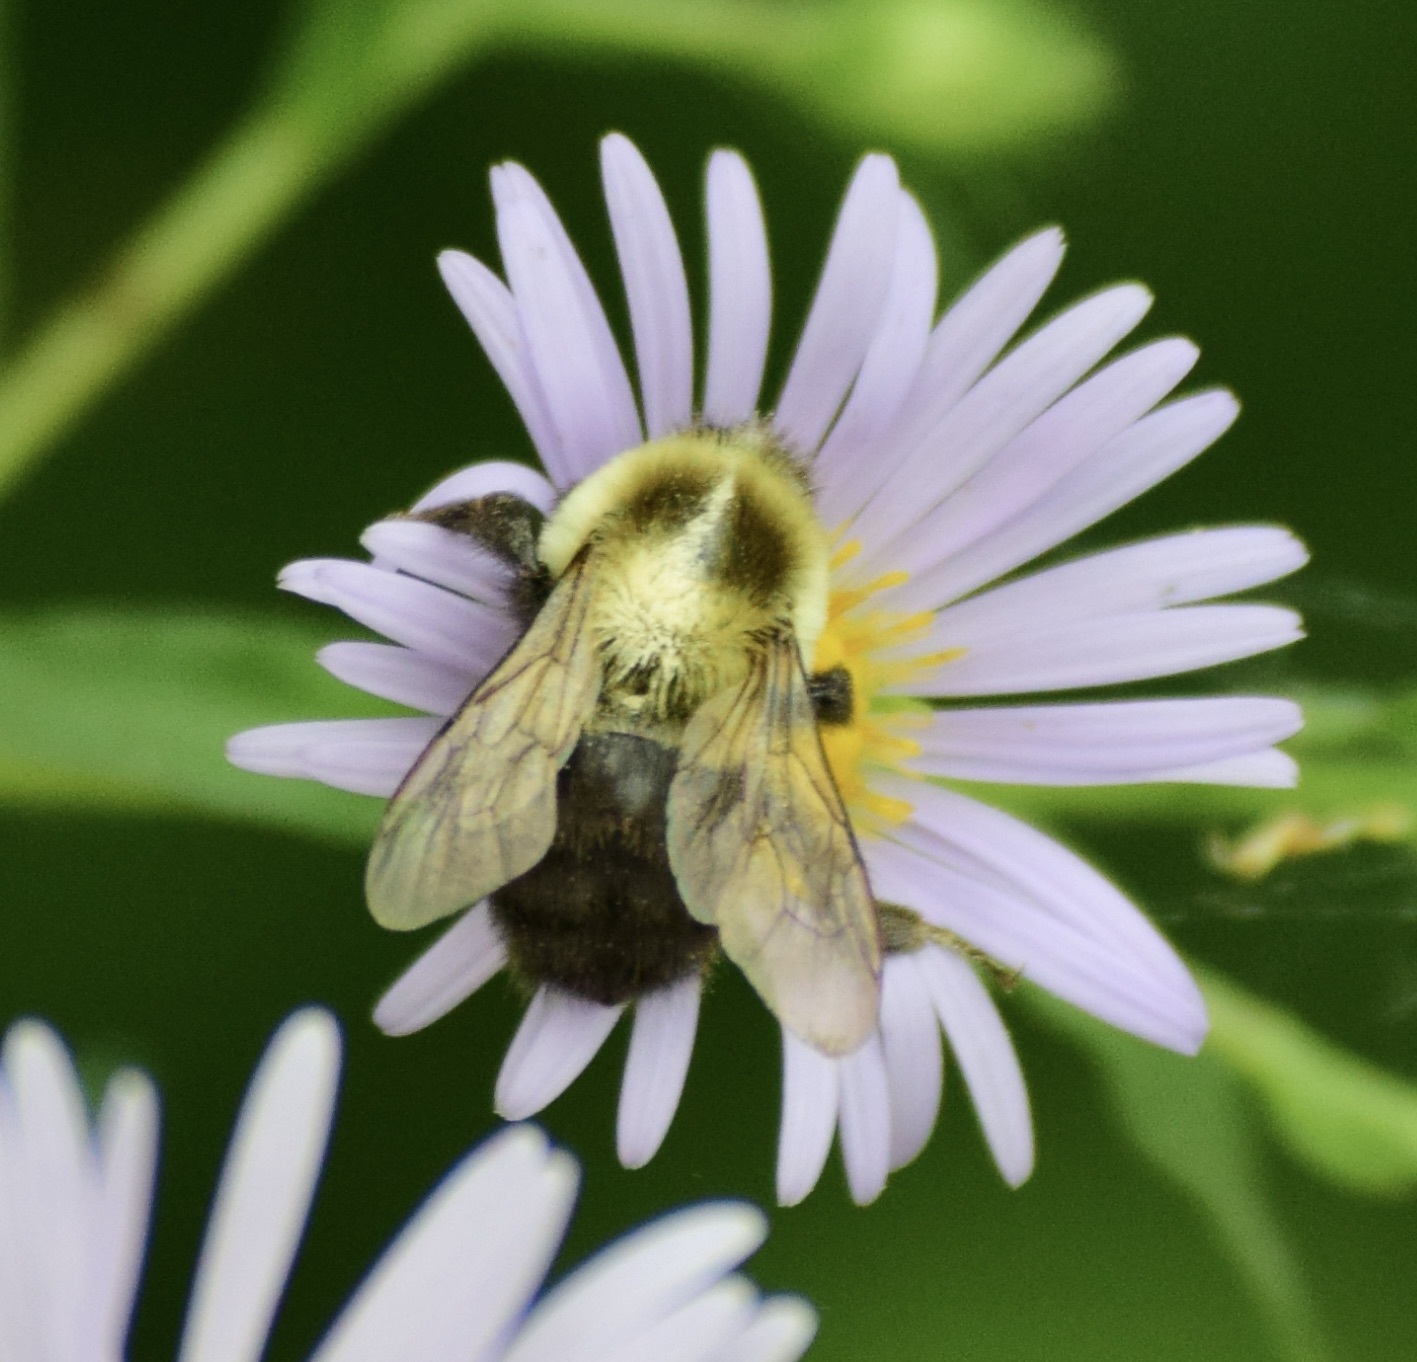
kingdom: Animalia
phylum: Arthropoda
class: Insecta
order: Hymenoptera
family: Apidae
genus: Bombus
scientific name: Bombus impatiens
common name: Common eastern bumble bee
